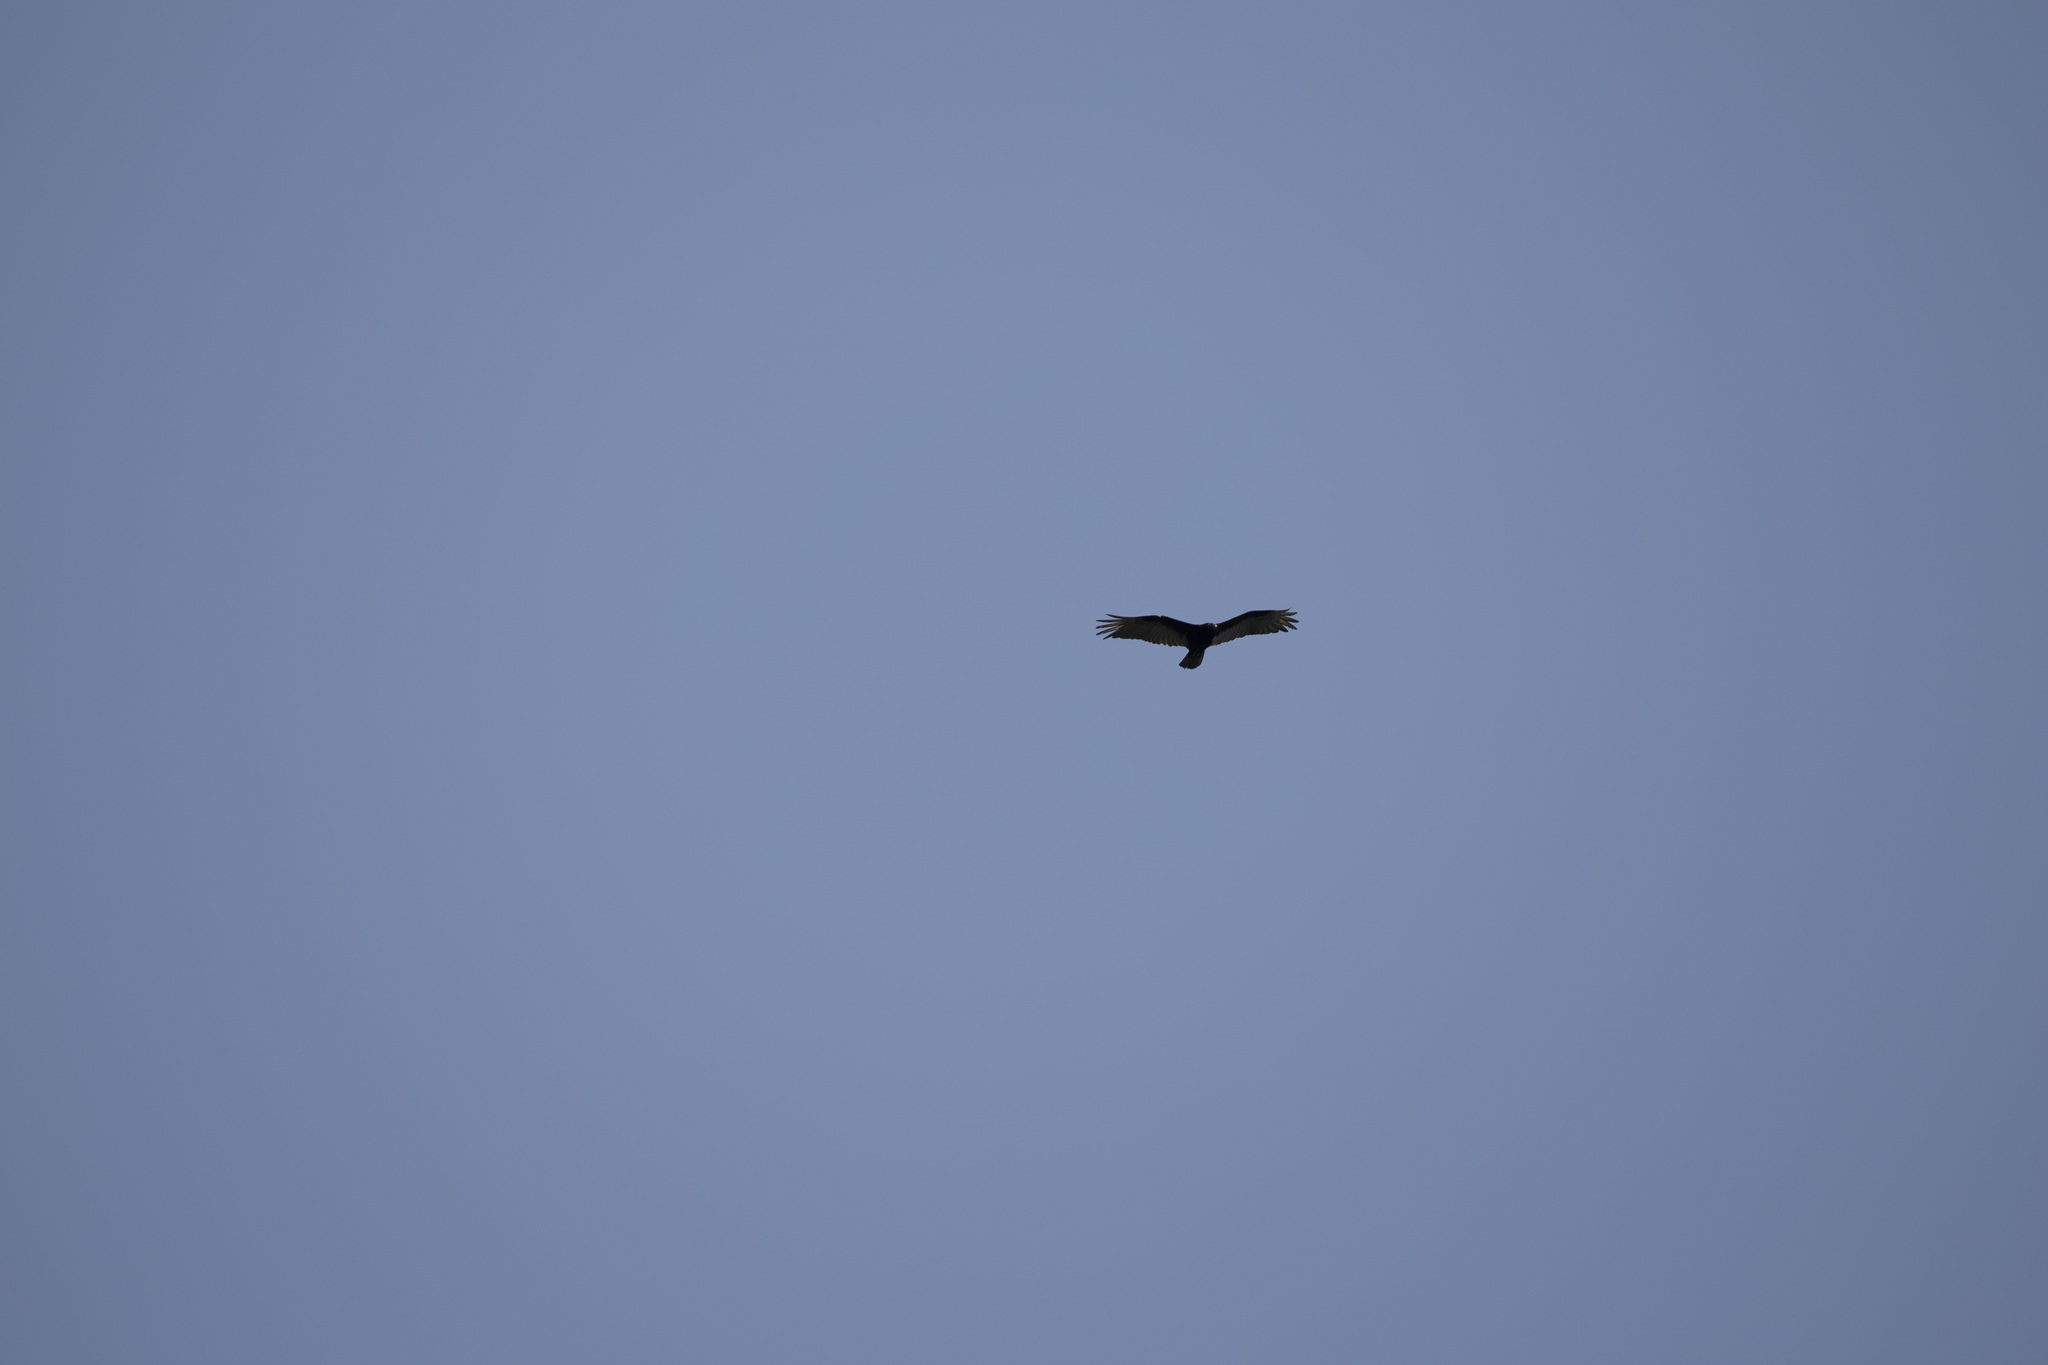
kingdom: Animalia
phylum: Chordata
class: Aves
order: Accipitriformes
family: Cathartidae
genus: Cathartes
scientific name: Cathartes aura
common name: Turkey vulture
